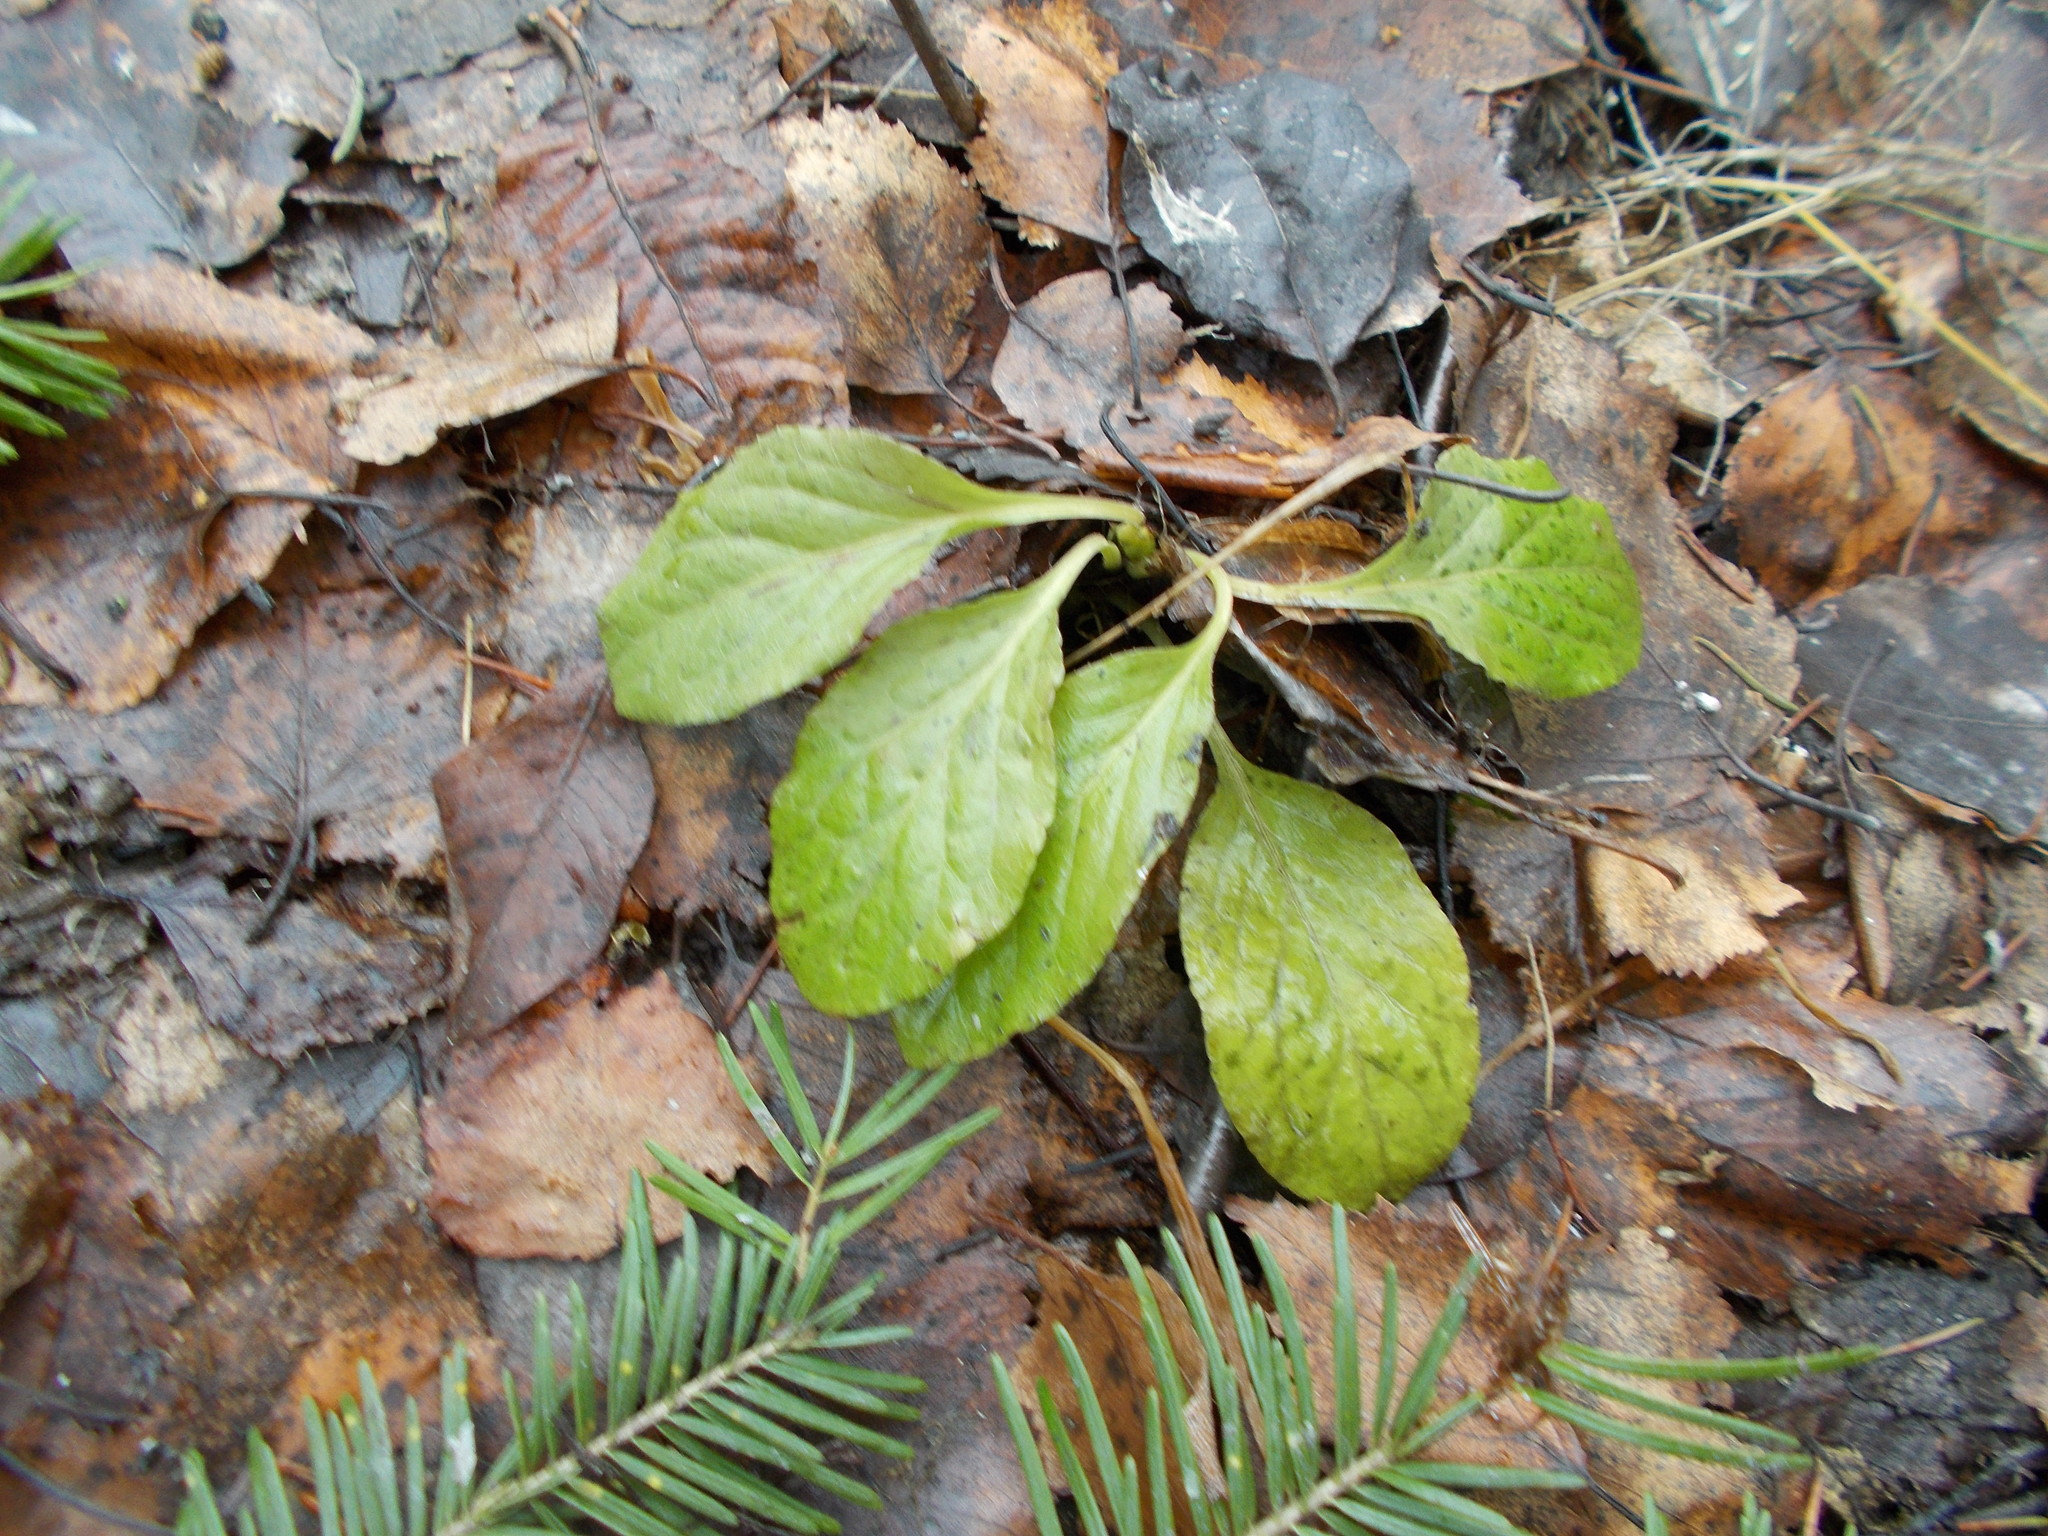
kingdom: Plantae
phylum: Tracheophyta
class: Magnoliopsida
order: Ericales
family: Ericaceae
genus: Orthilia
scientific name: Orthilia secunda
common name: One-sided orthilia
